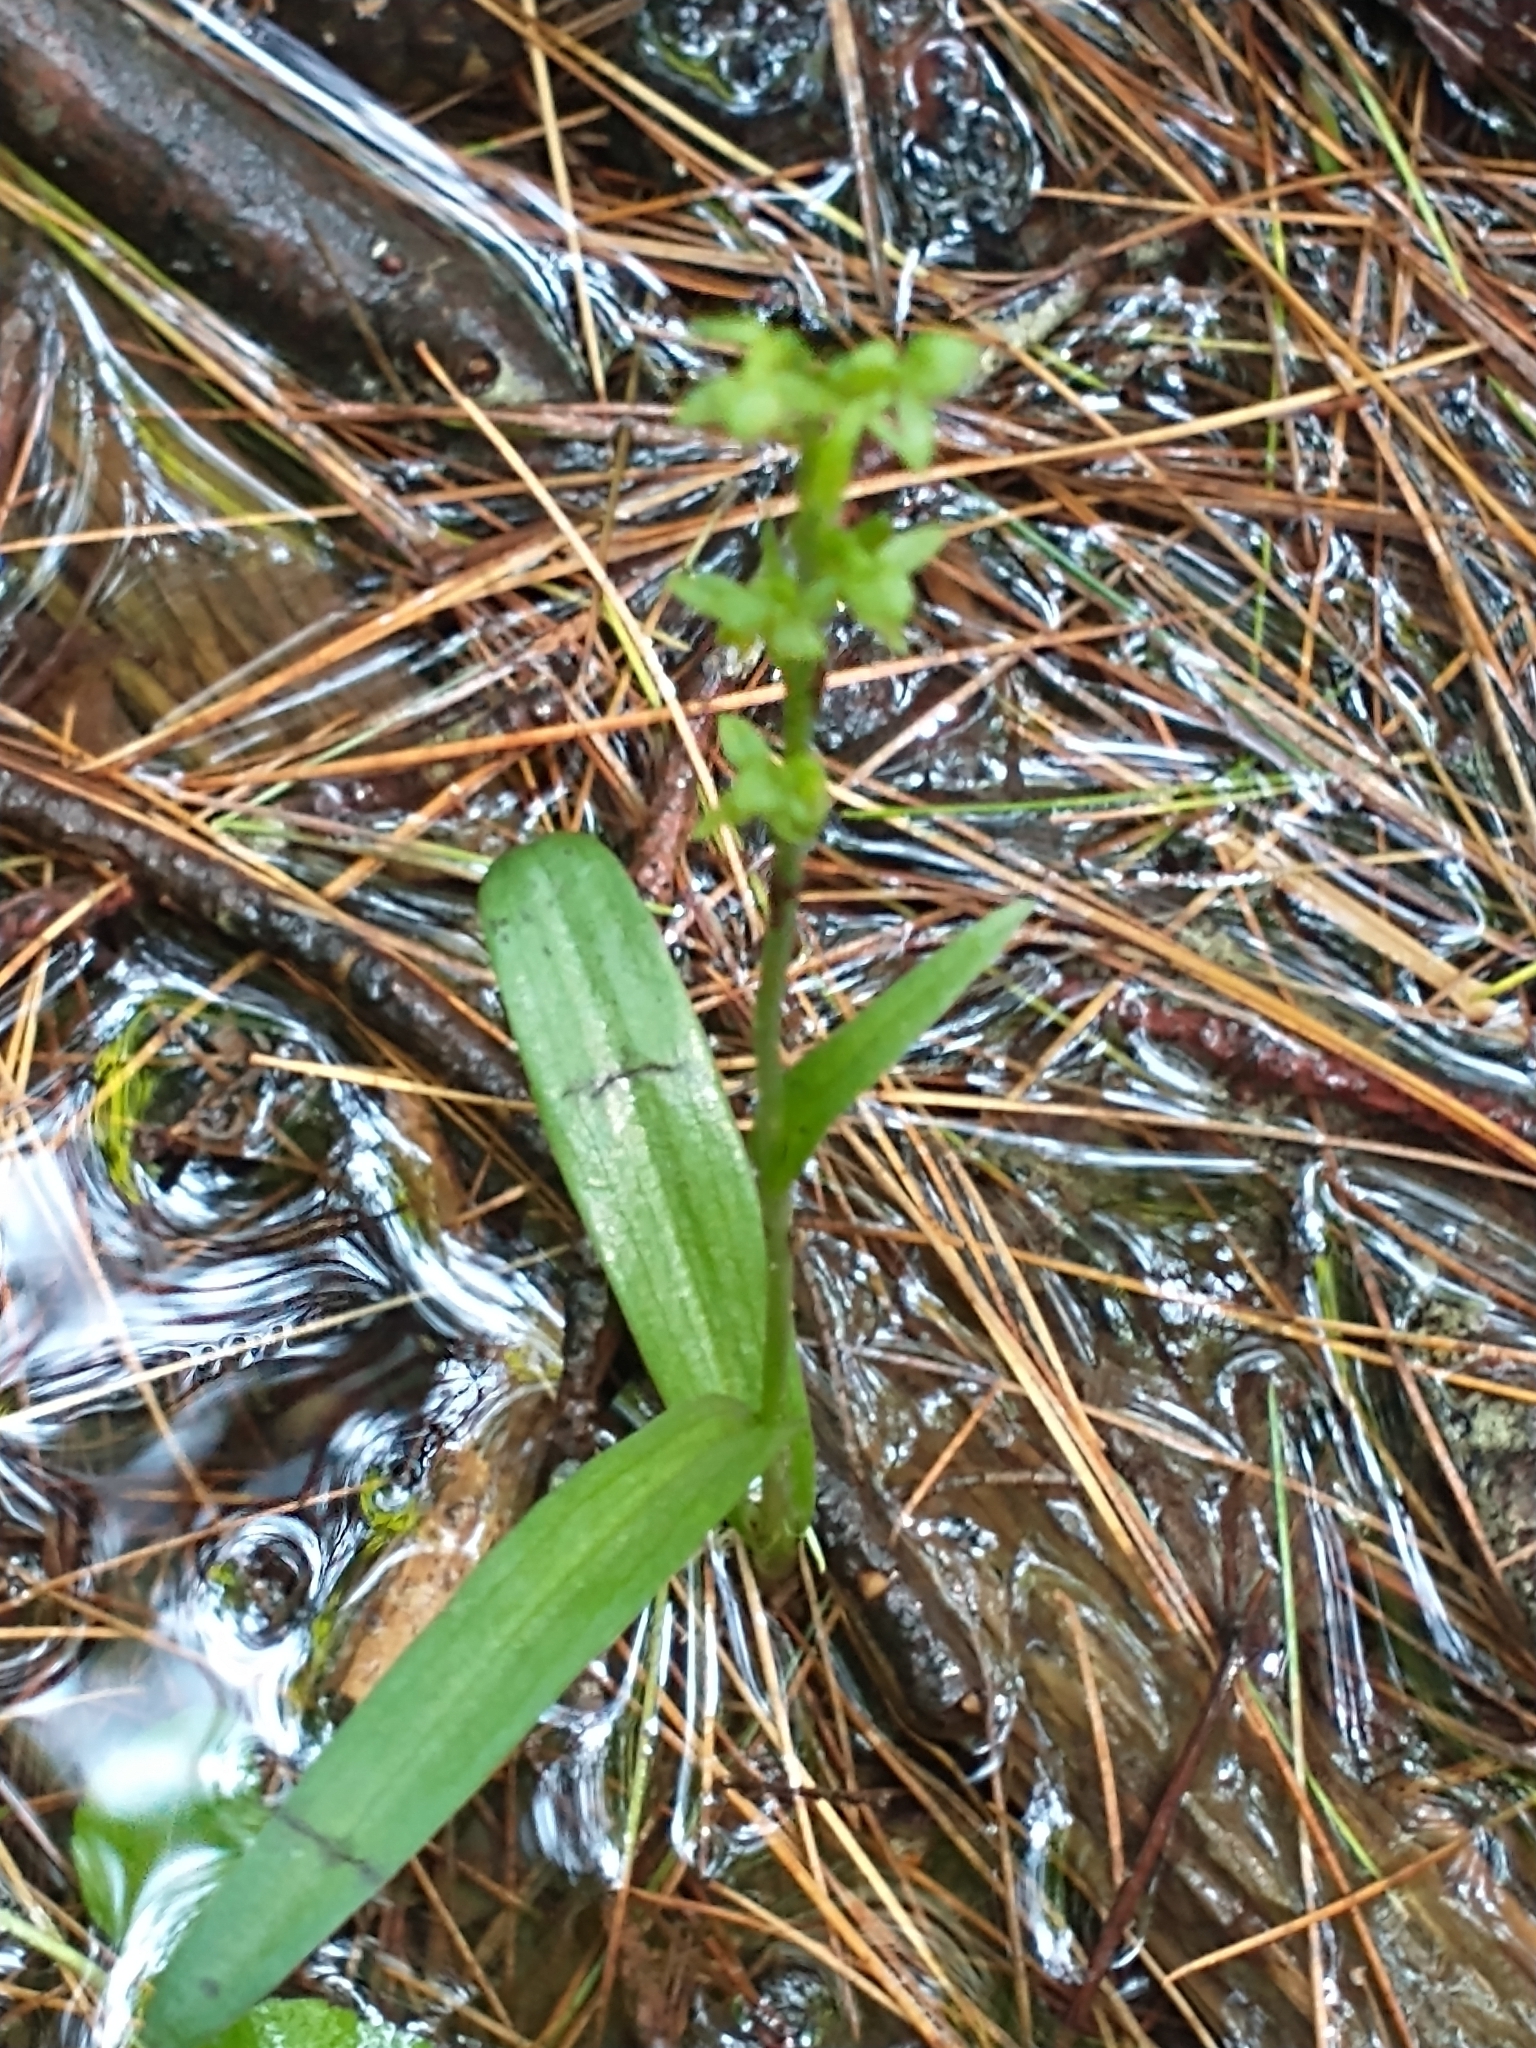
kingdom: Plantae
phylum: Tracheophyta
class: Liliopsida
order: Asparagales
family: Orchidaceae
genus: Platanthera
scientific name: Platanthera aquilonis
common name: Northern green orchid
